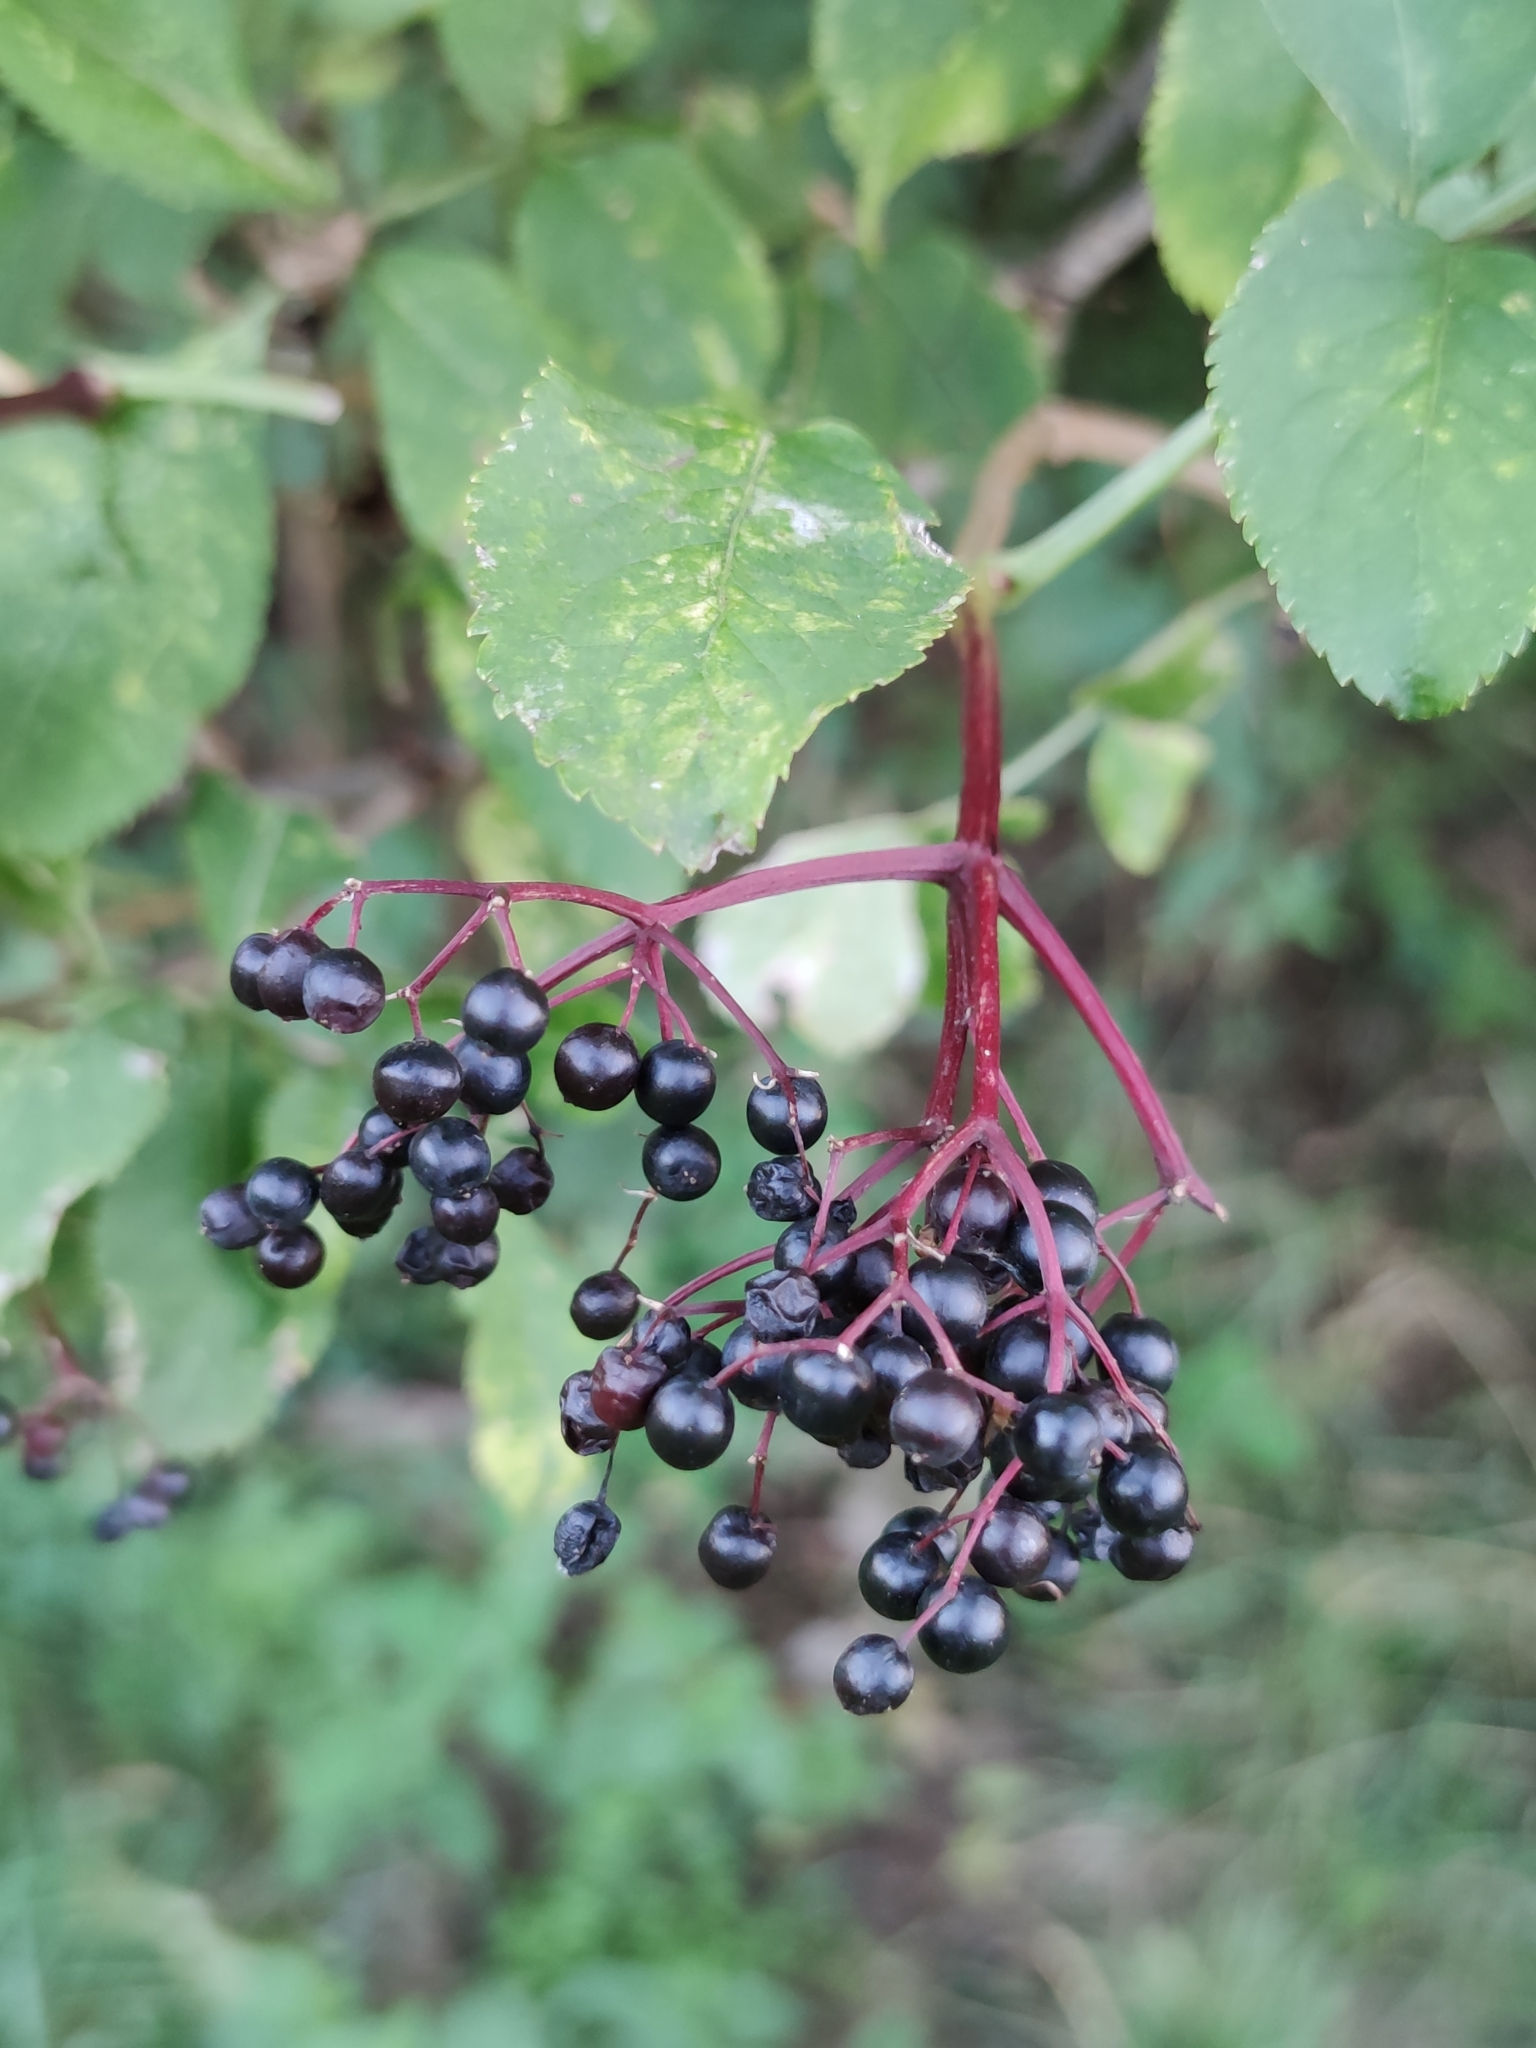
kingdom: Plantae
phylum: Tracheophyta
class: Magnoliopsida
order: Dipsacales
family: Viburnaceae
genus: Sambucus
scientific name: Sambucus nigra
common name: Elder
